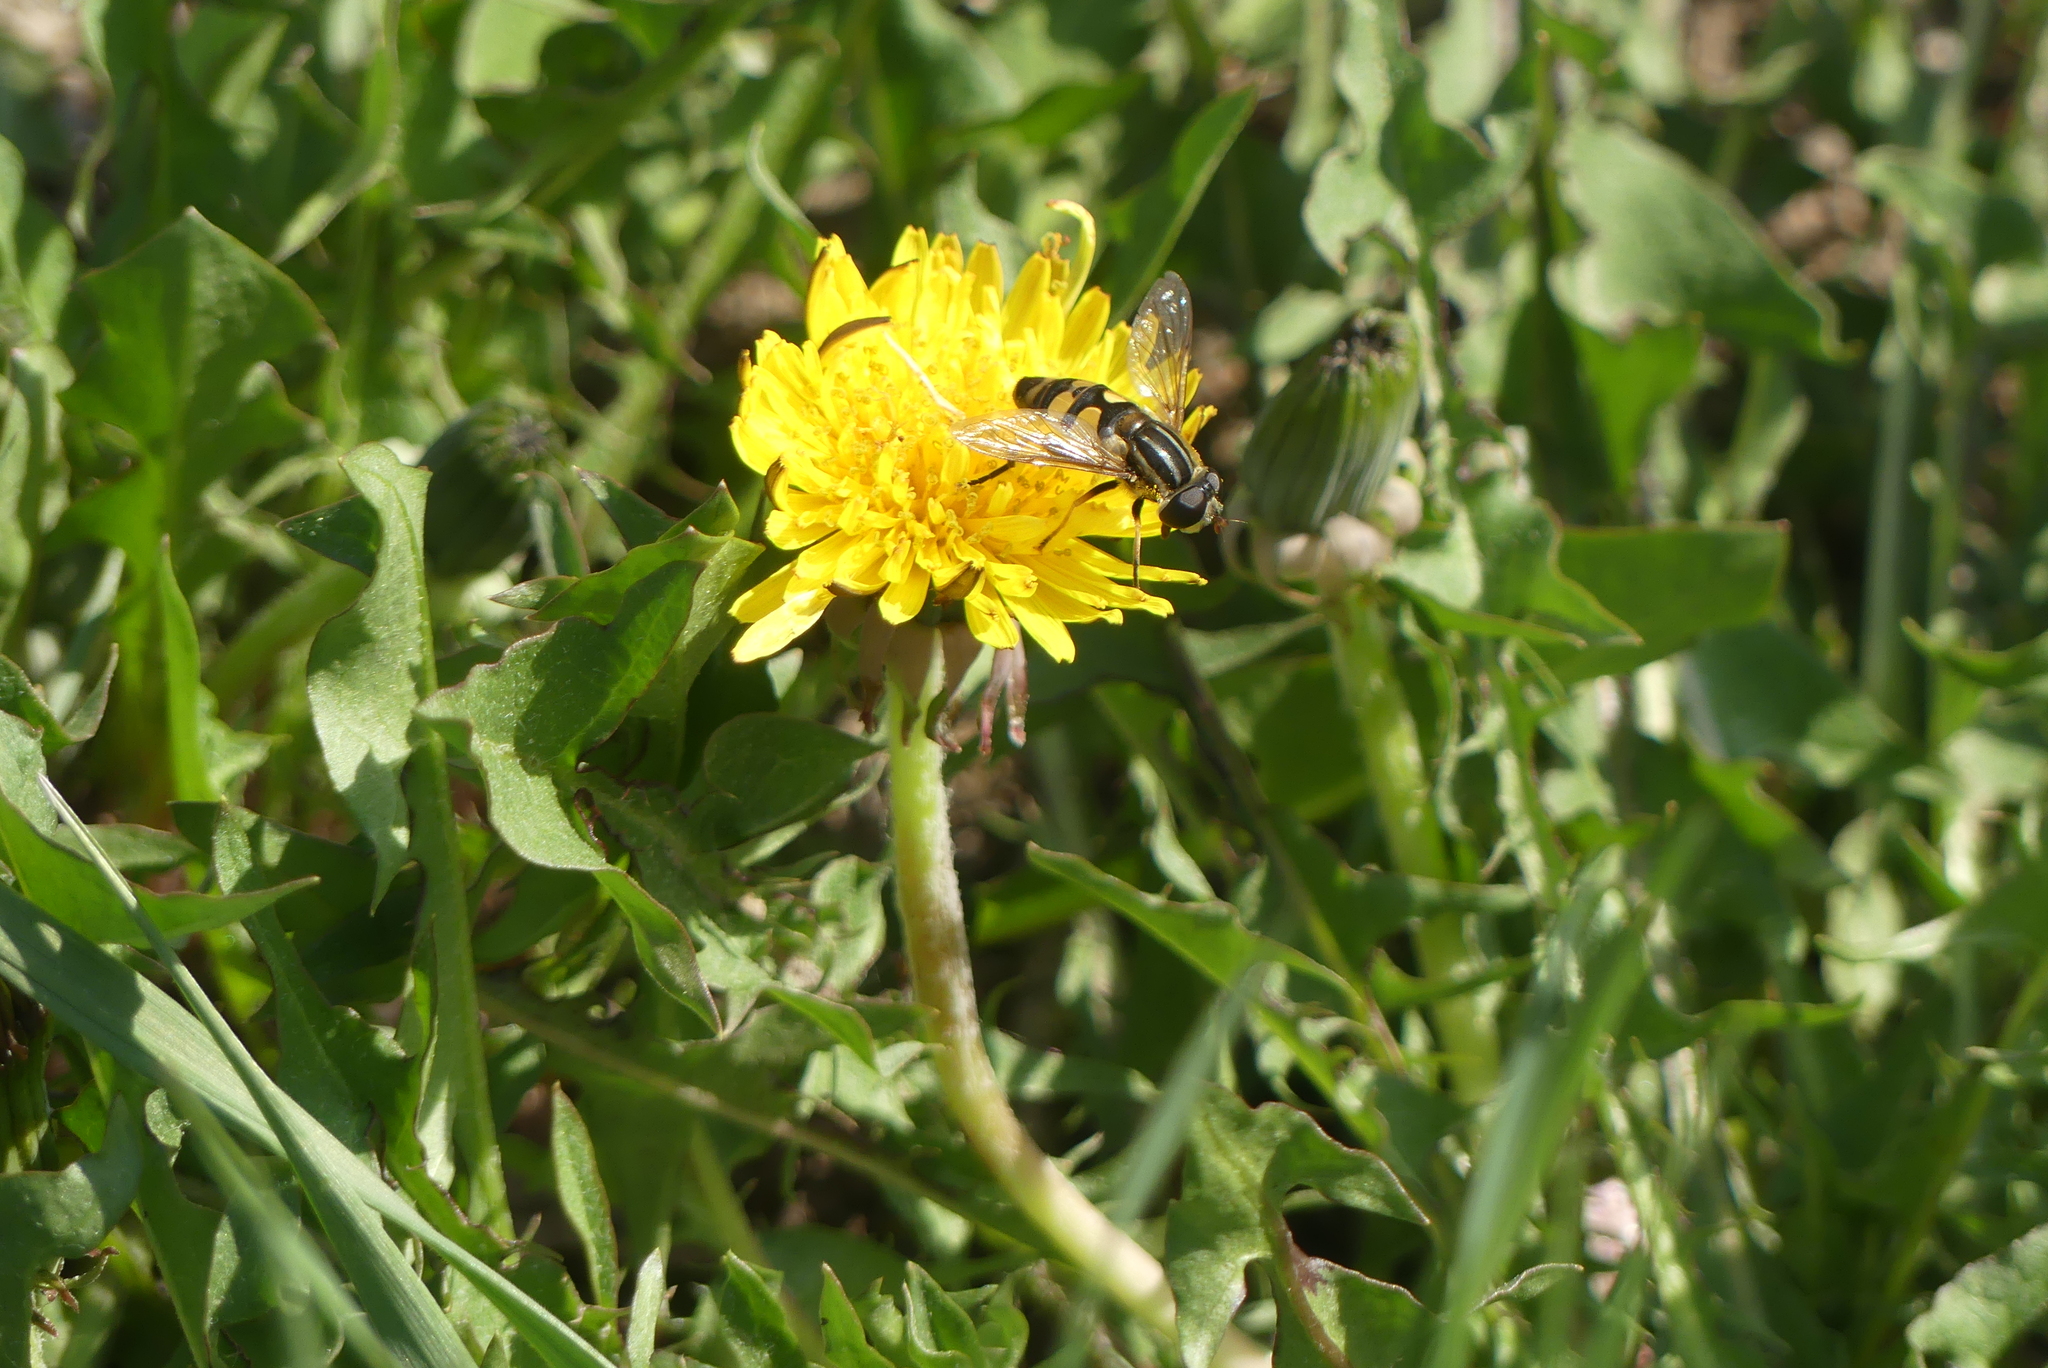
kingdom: Animalia
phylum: Arthropoda
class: Insecta
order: Diptera
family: Syrphidae
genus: Helophilus
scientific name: Helophilus fasciatus
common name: Narrow-headed marsh fly
